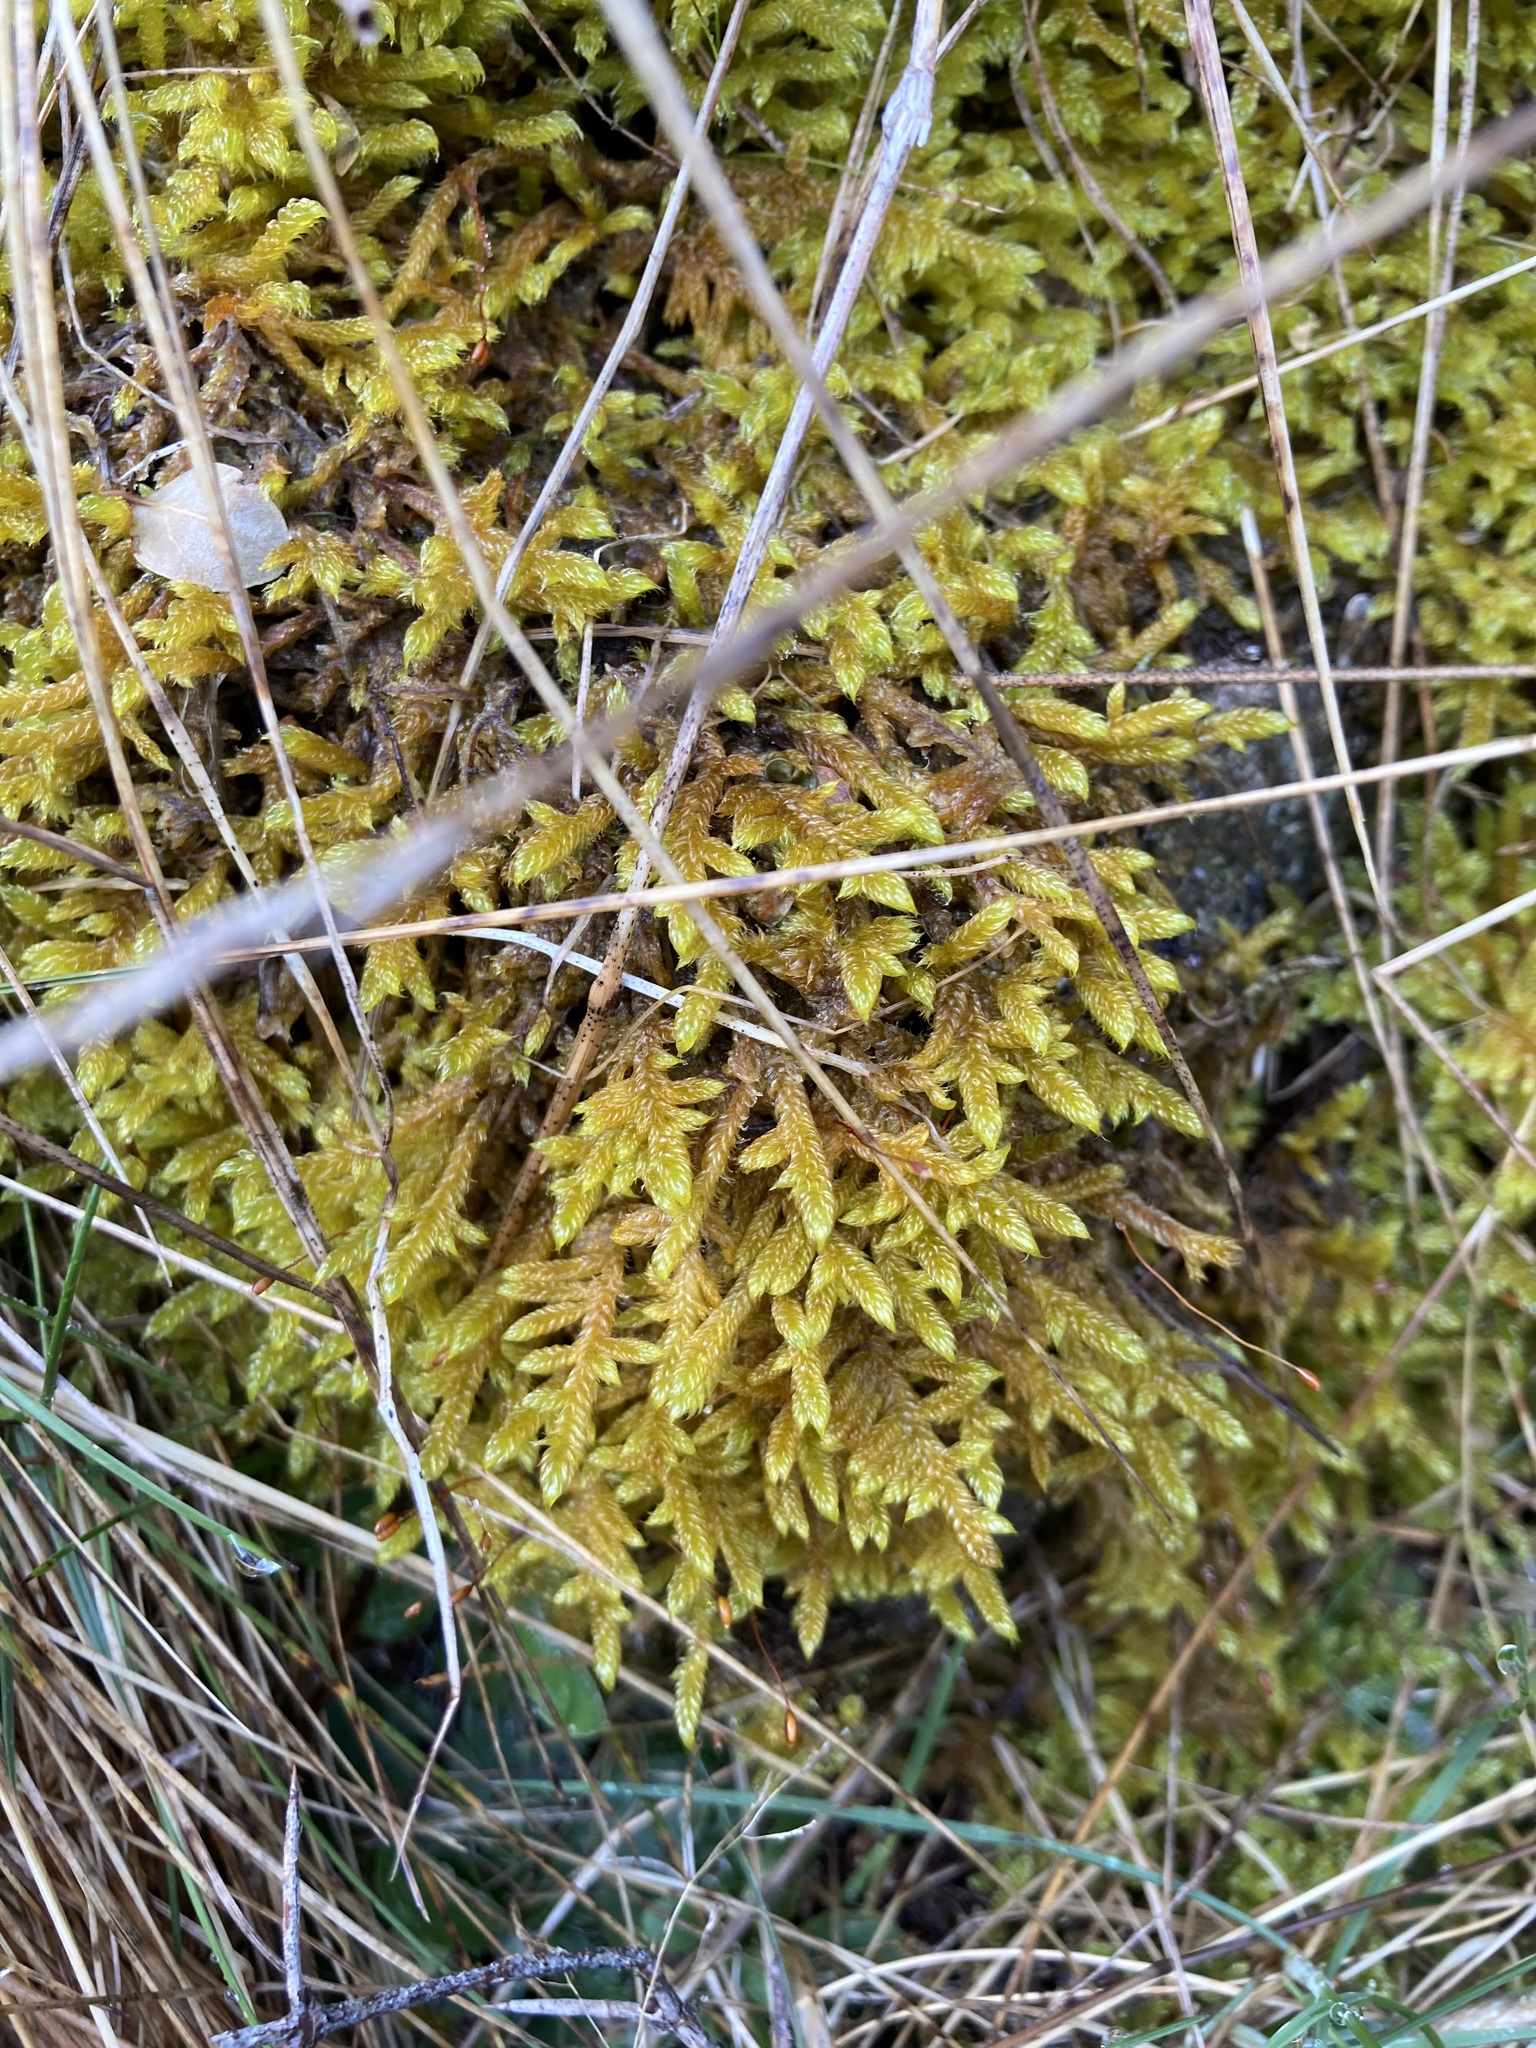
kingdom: Plantae
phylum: Bryophyta
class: Bryopsida
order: Hypnales
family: Hypnaceae
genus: Hypnum
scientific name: Hypnum cupressiforme
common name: Cypress-leaved plait-moss
